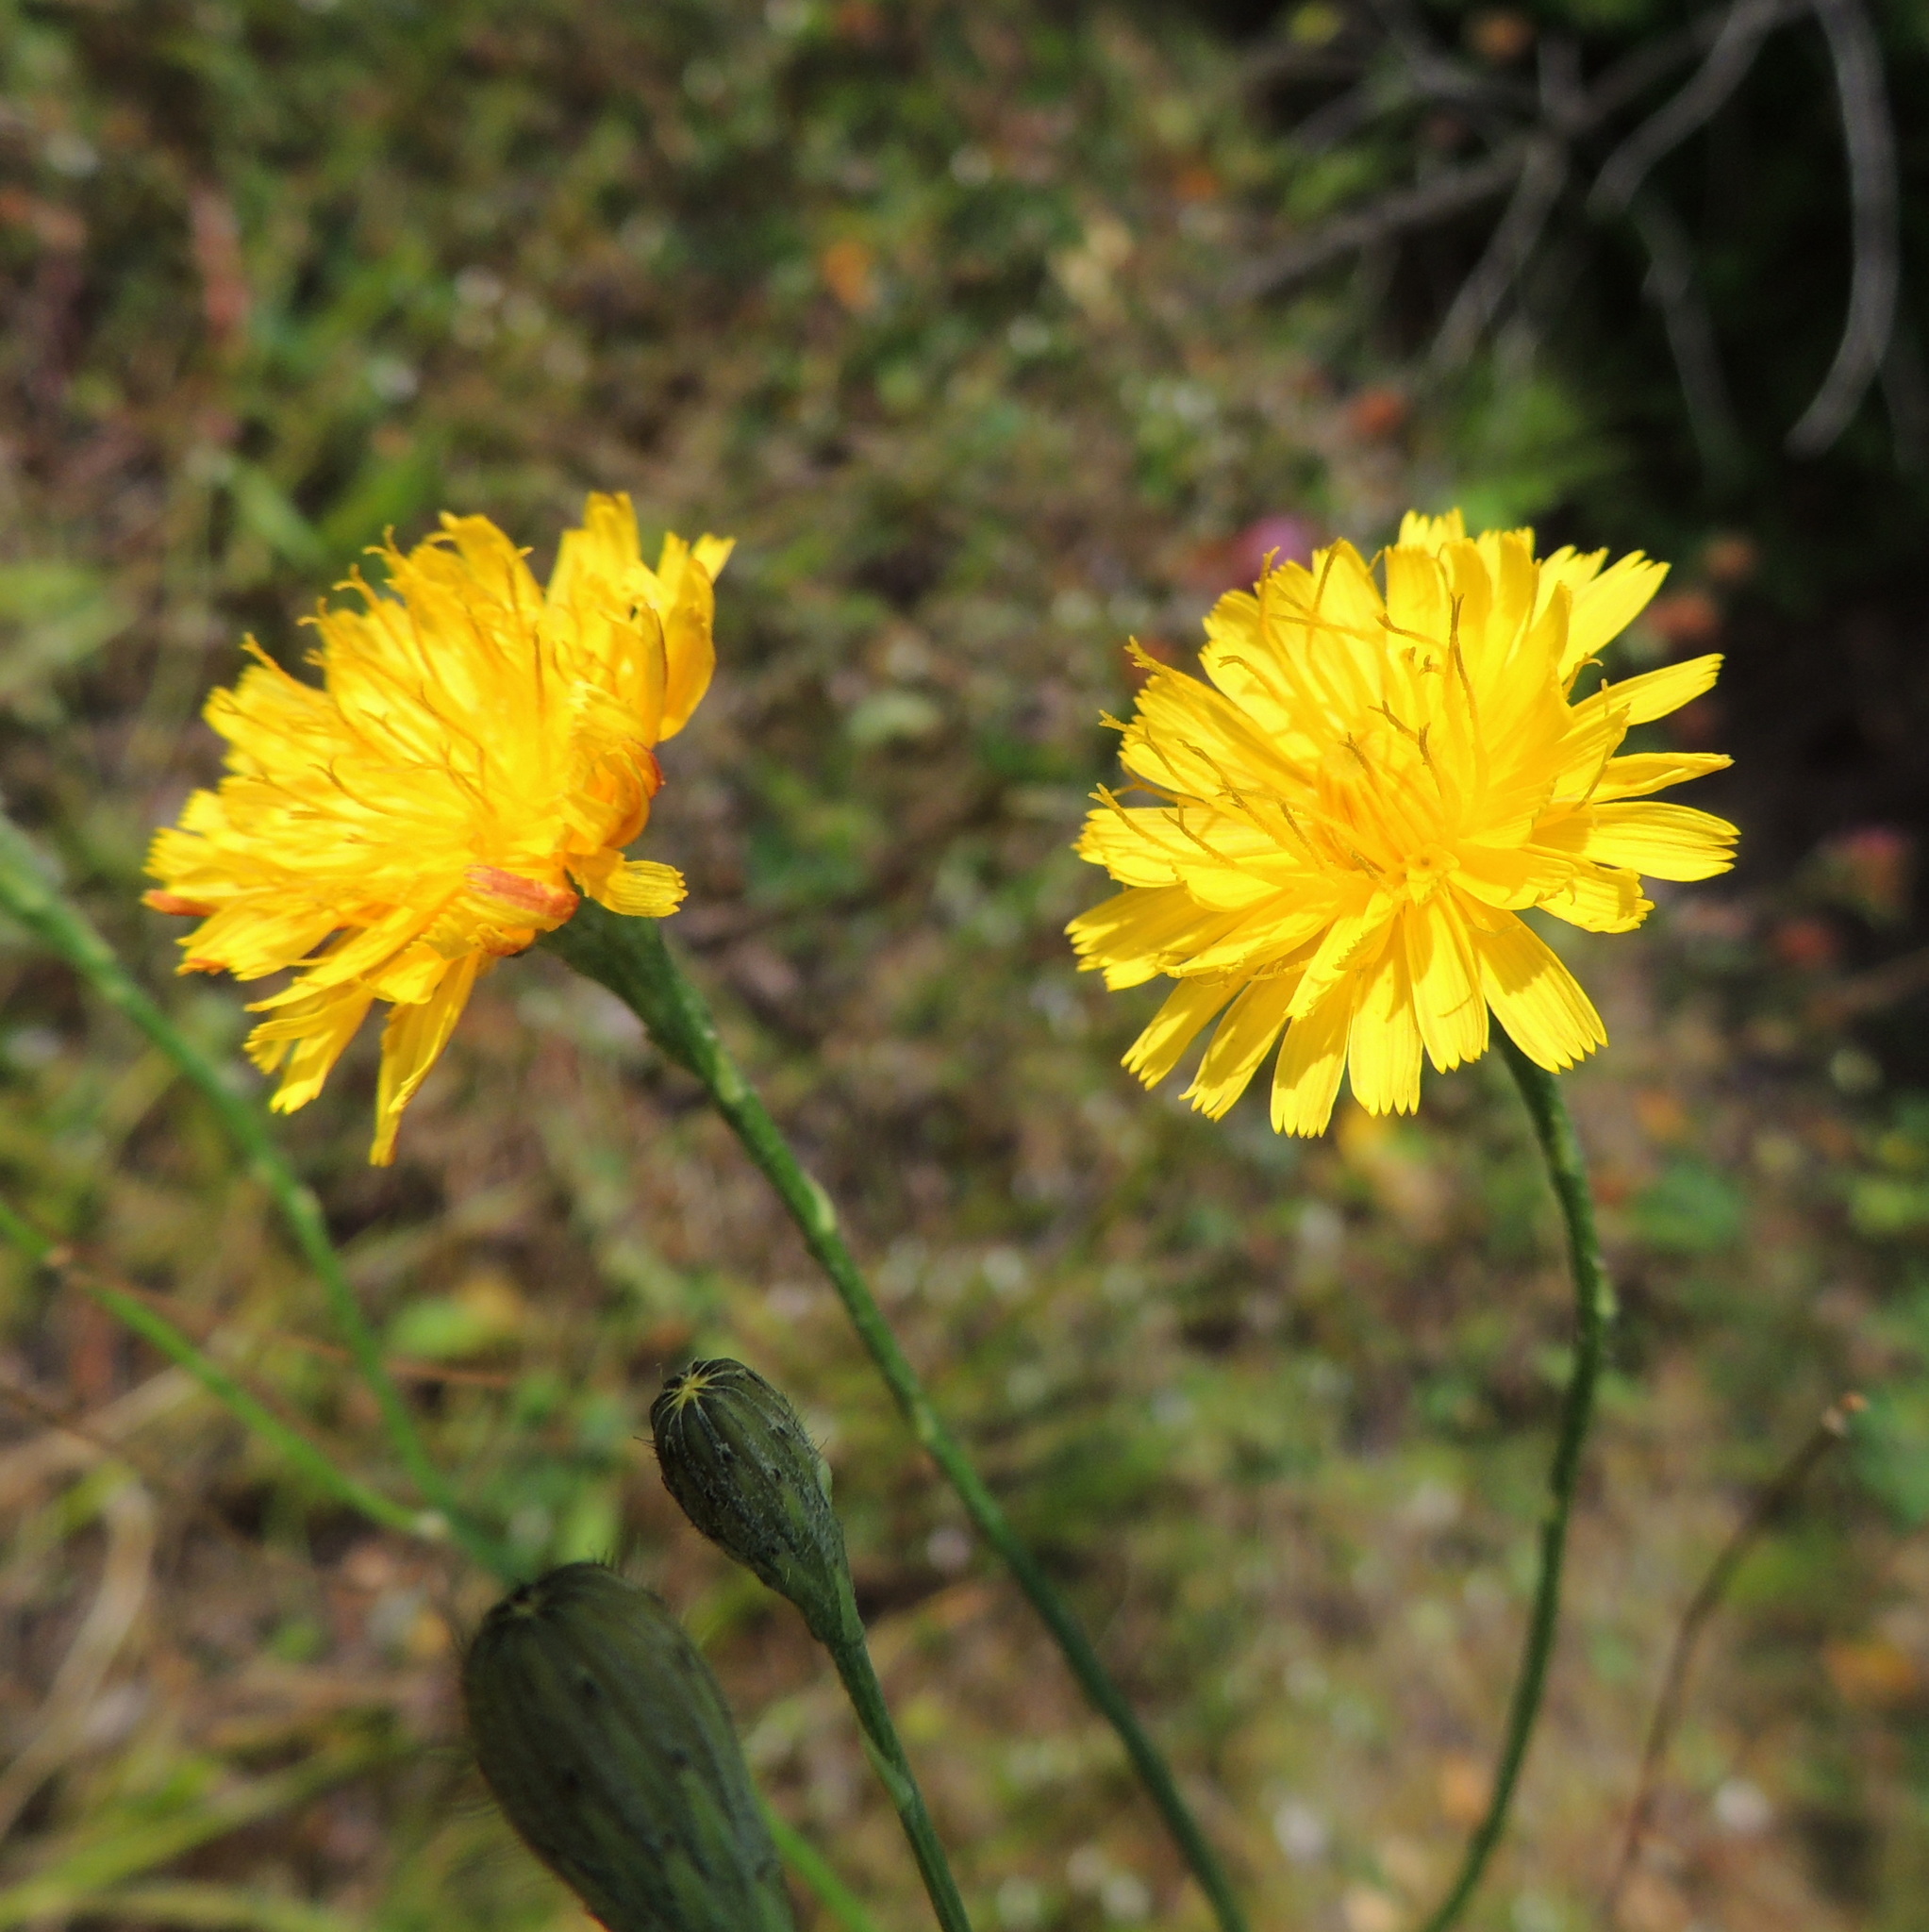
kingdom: Plantae
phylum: Tracheophyta
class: Magnoliopsida
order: Asterales
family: Asteraceae
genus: Scorzoneroides
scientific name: Scorzoneroides autumnalis
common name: Autumn hawkbit
